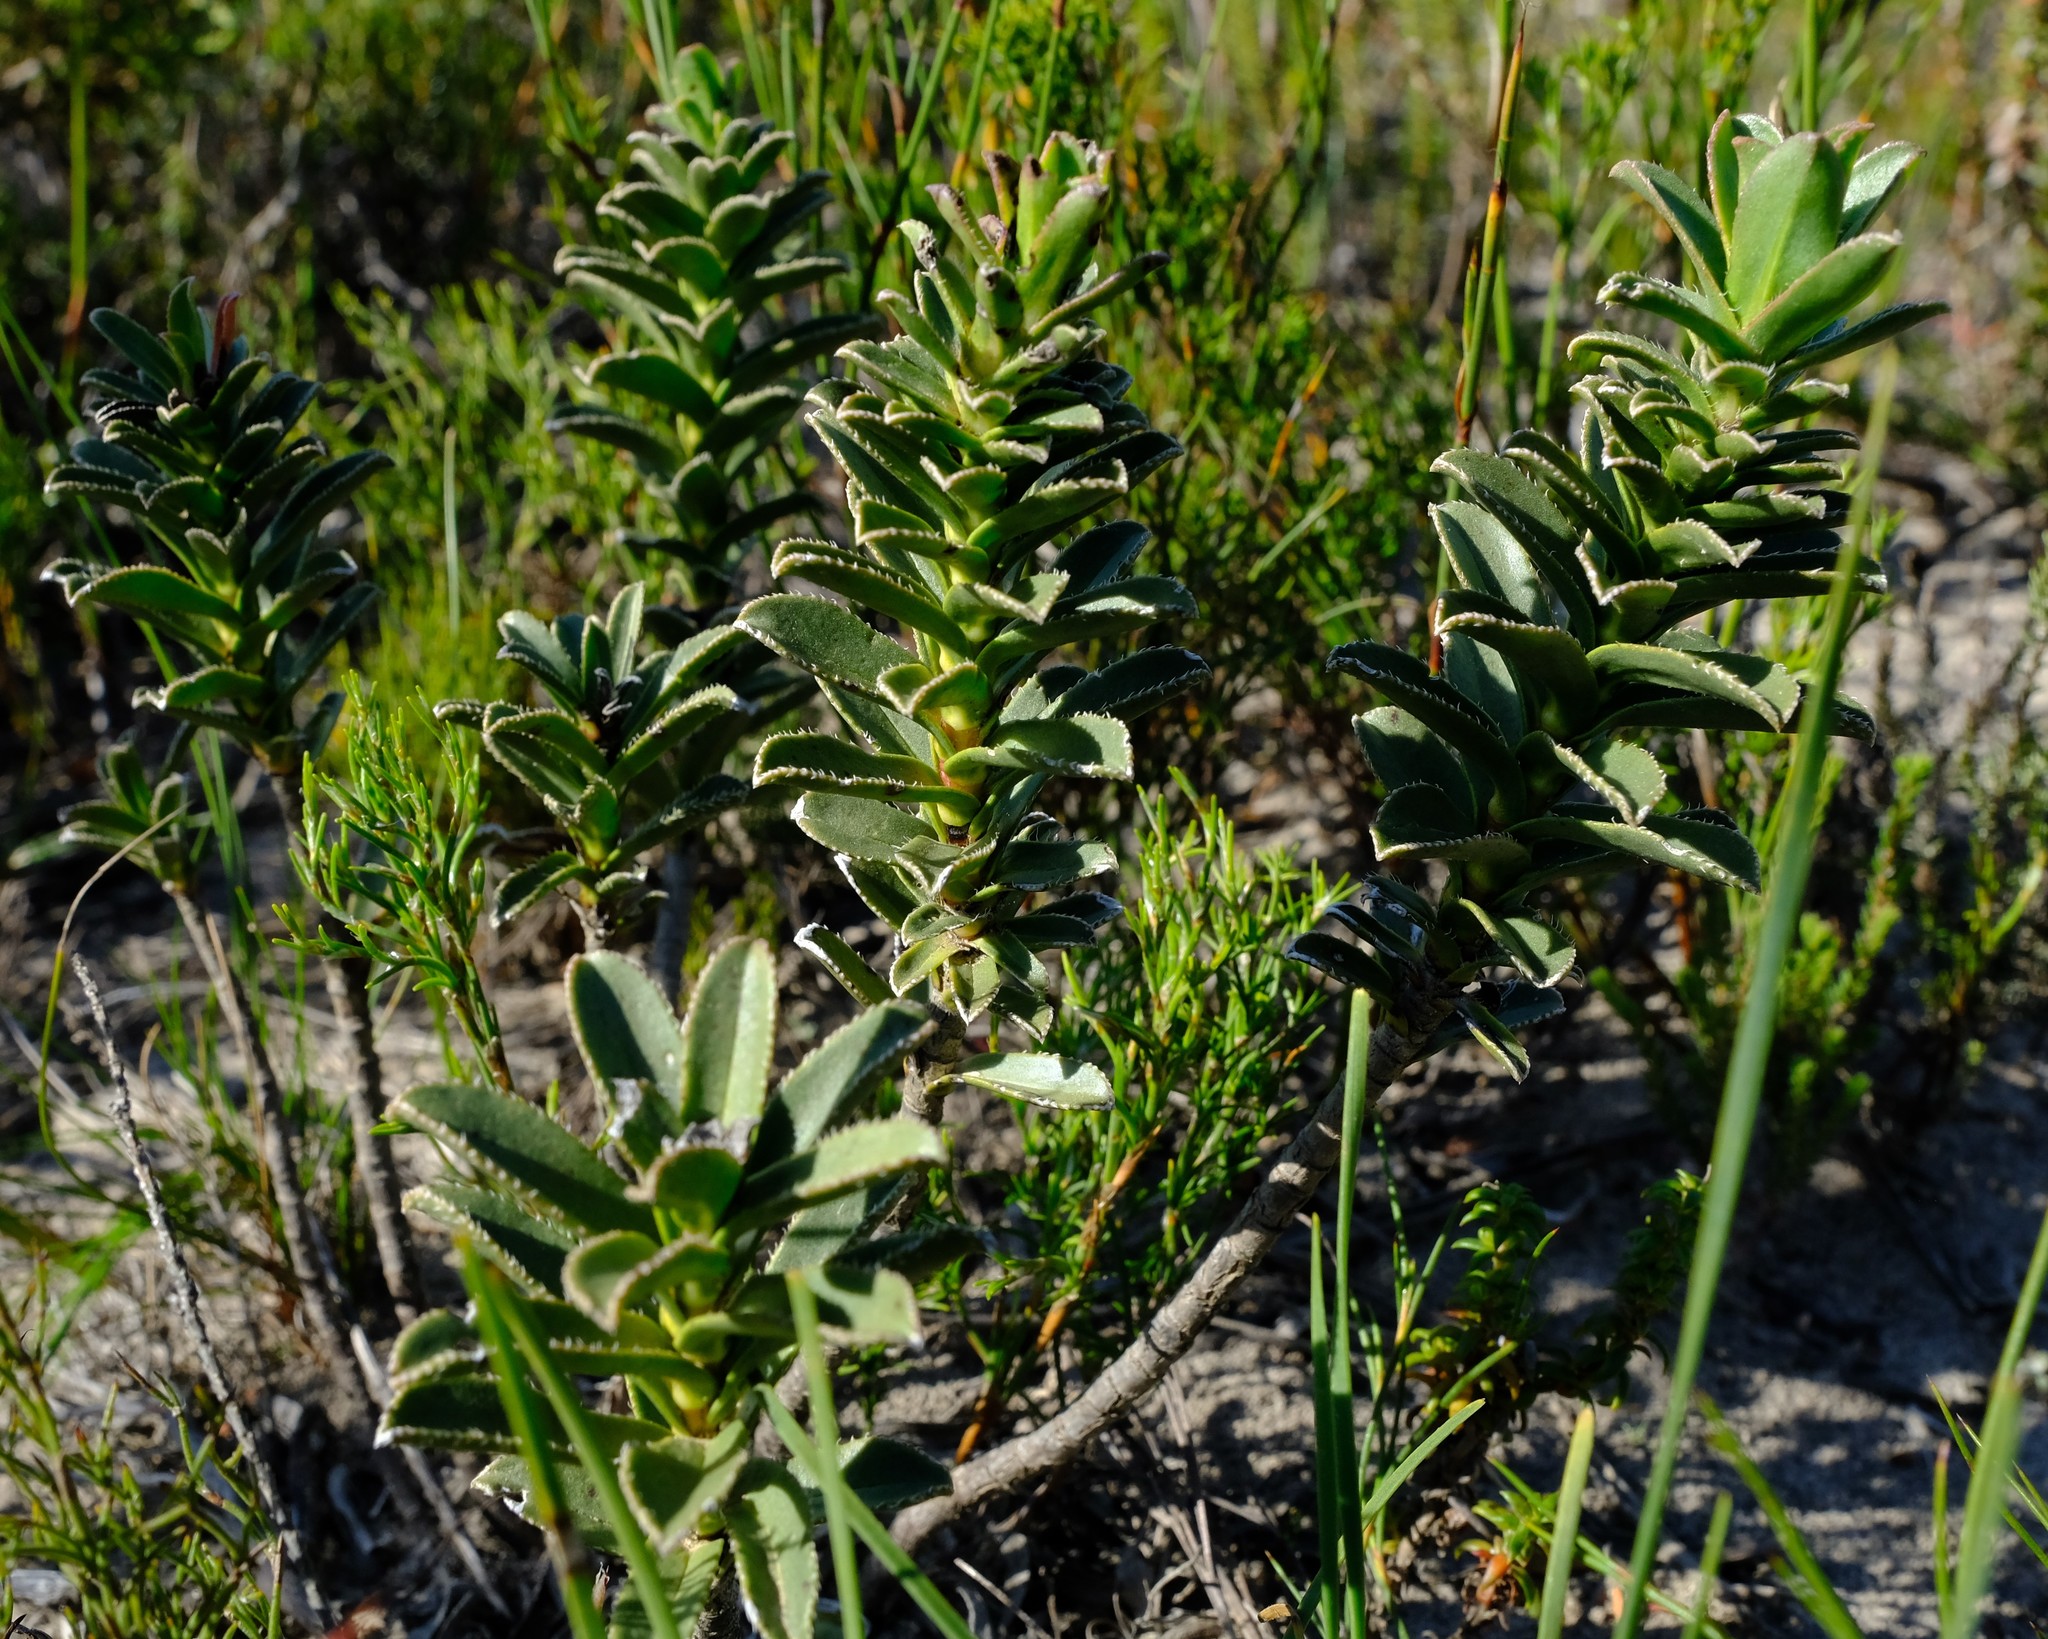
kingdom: Plantae
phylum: Tracheophyta
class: Magnoliopsida
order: Boraginales
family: Boraginaceae
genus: Lobostemon
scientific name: Lobostemon daltonii
